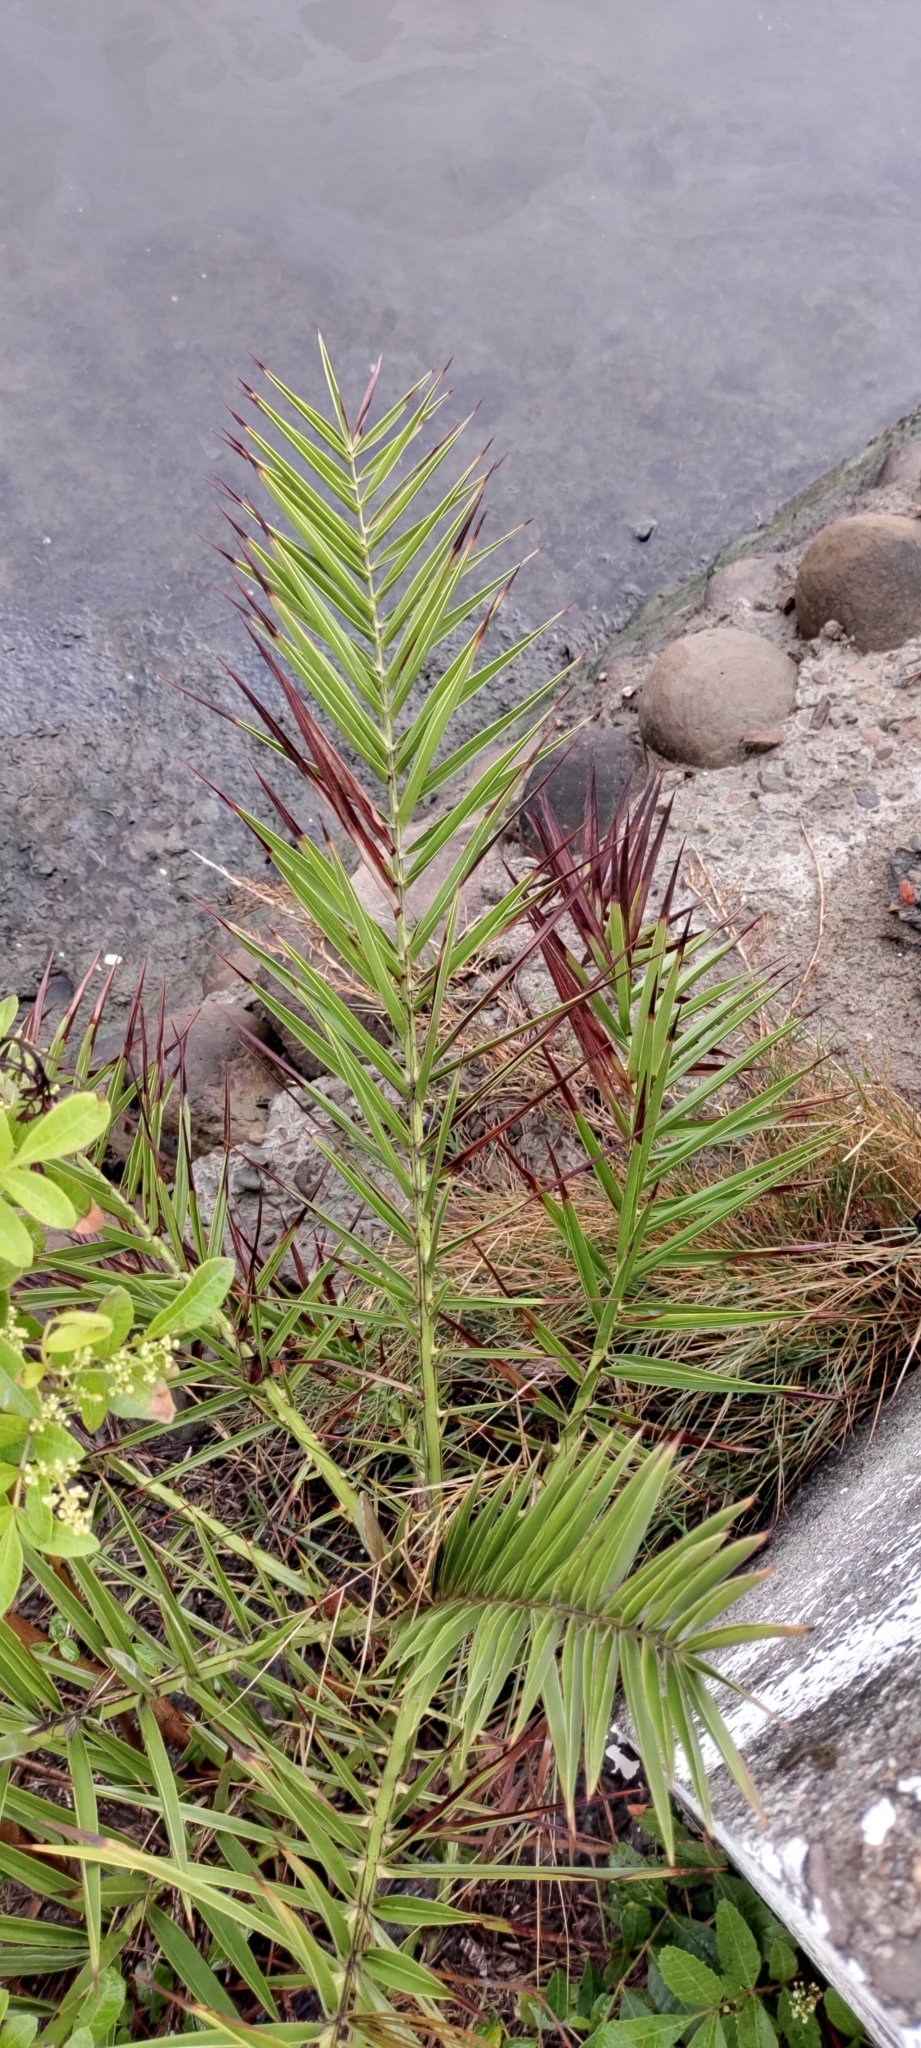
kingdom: Plantae
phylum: Tracheophyta
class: Liliopsida
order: Arecales
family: Arecaceae
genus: Phoenix
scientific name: Phoenix loureiroi
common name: Loureiro's palm
